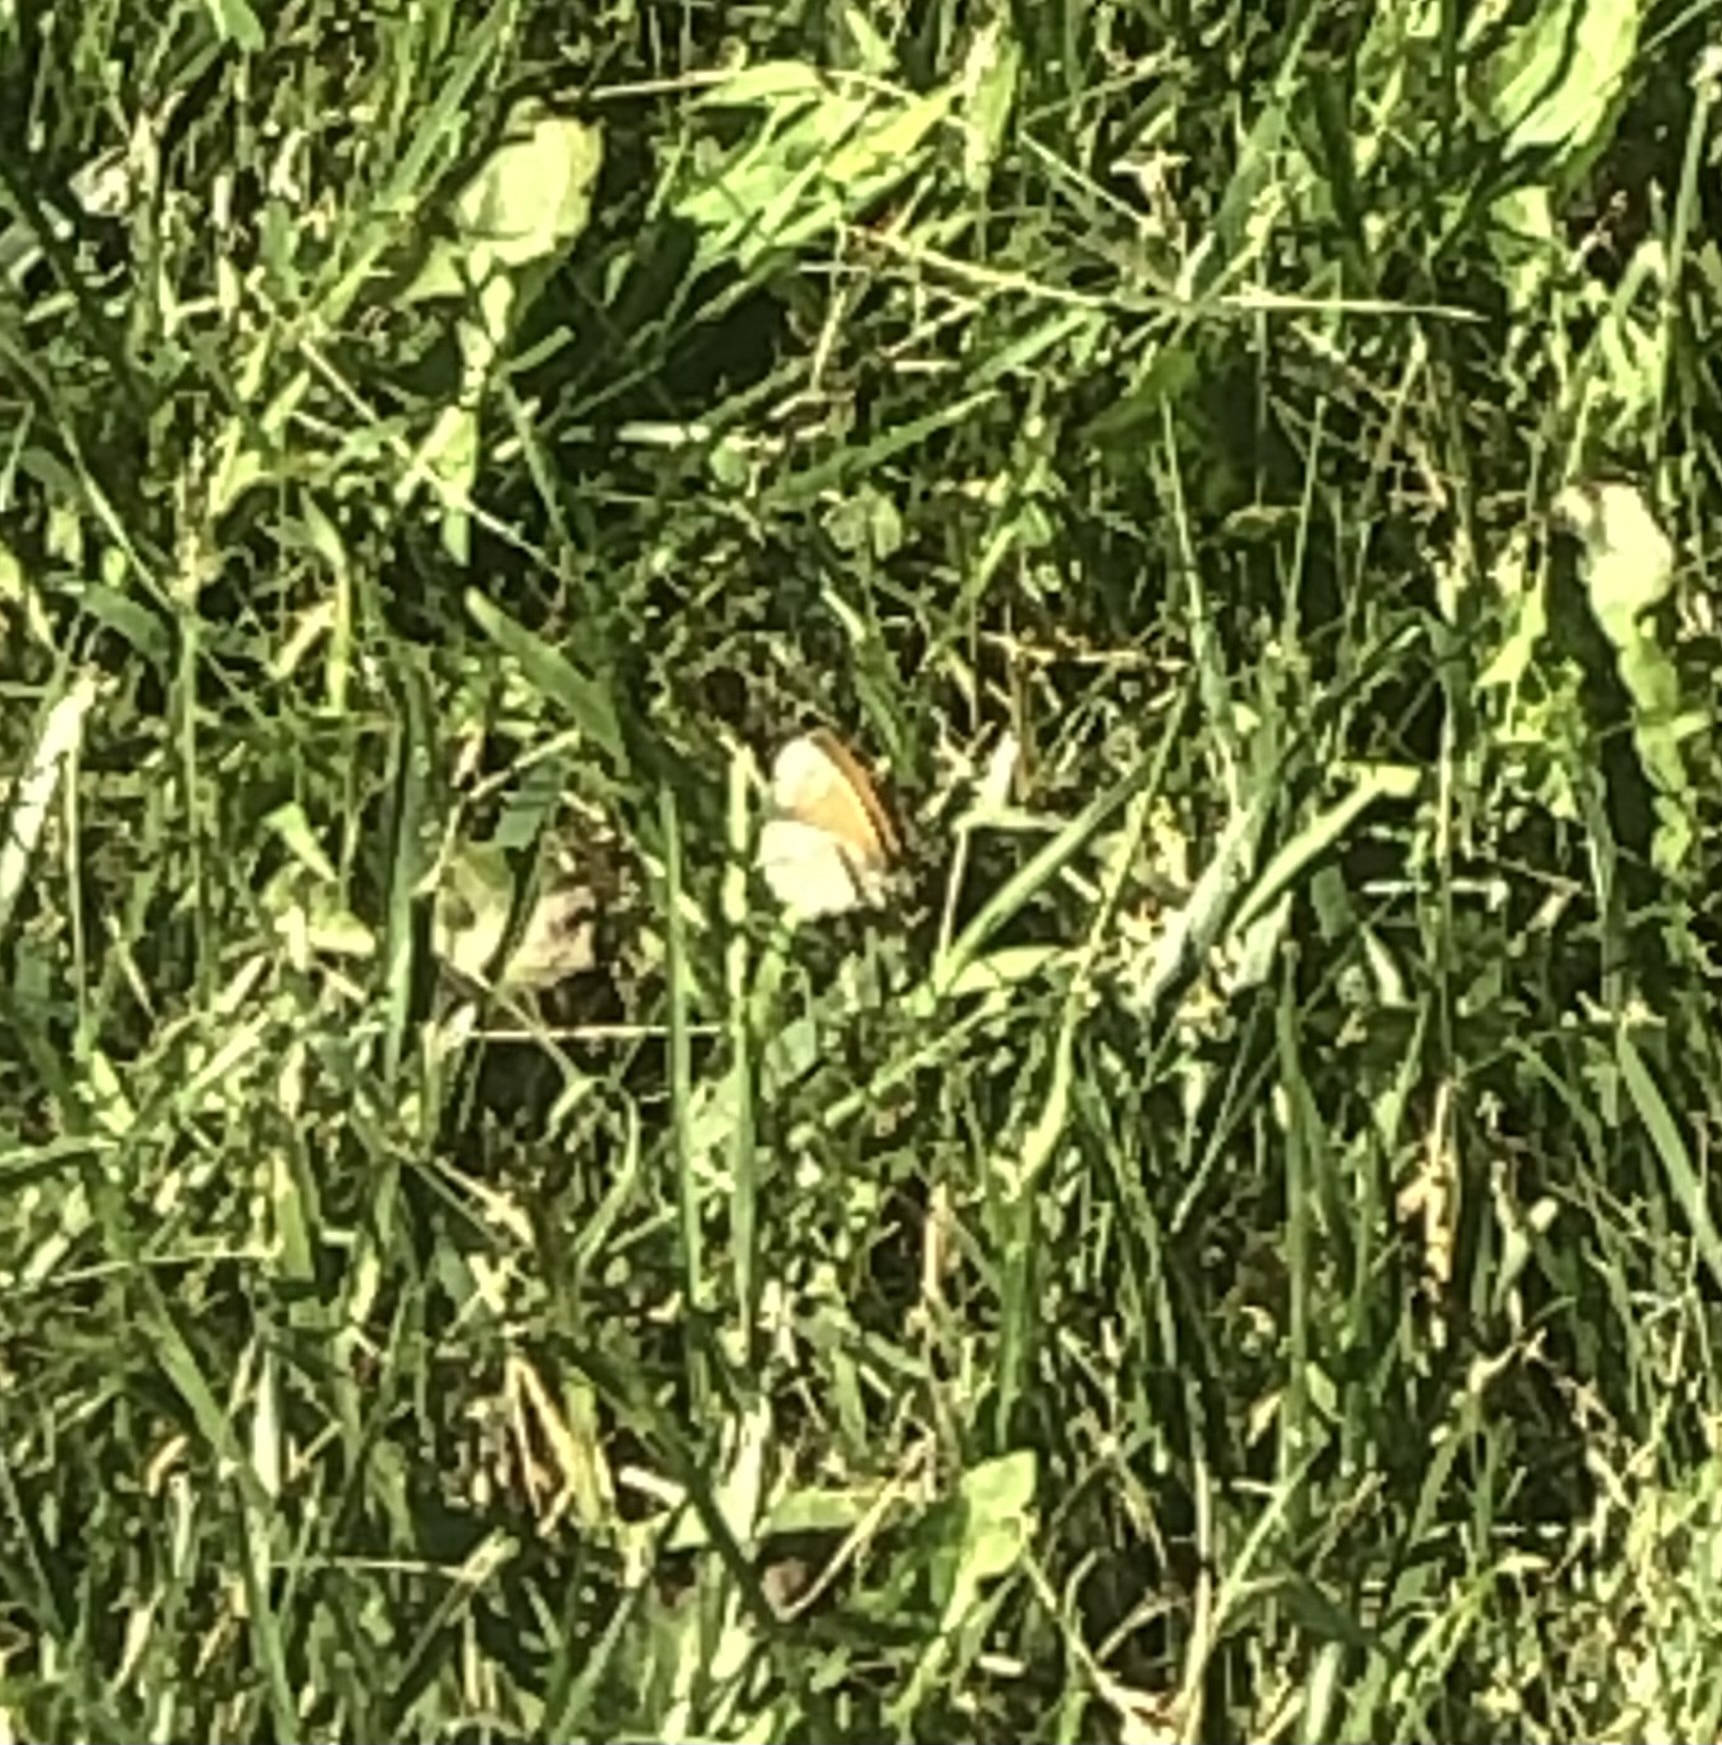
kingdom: Animalia
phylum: Arthropoda
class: Insecta
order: Lepidoptera
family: Nymphalidae
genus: Coenonympha
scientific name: Coenonympha california
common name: Common ringlet
